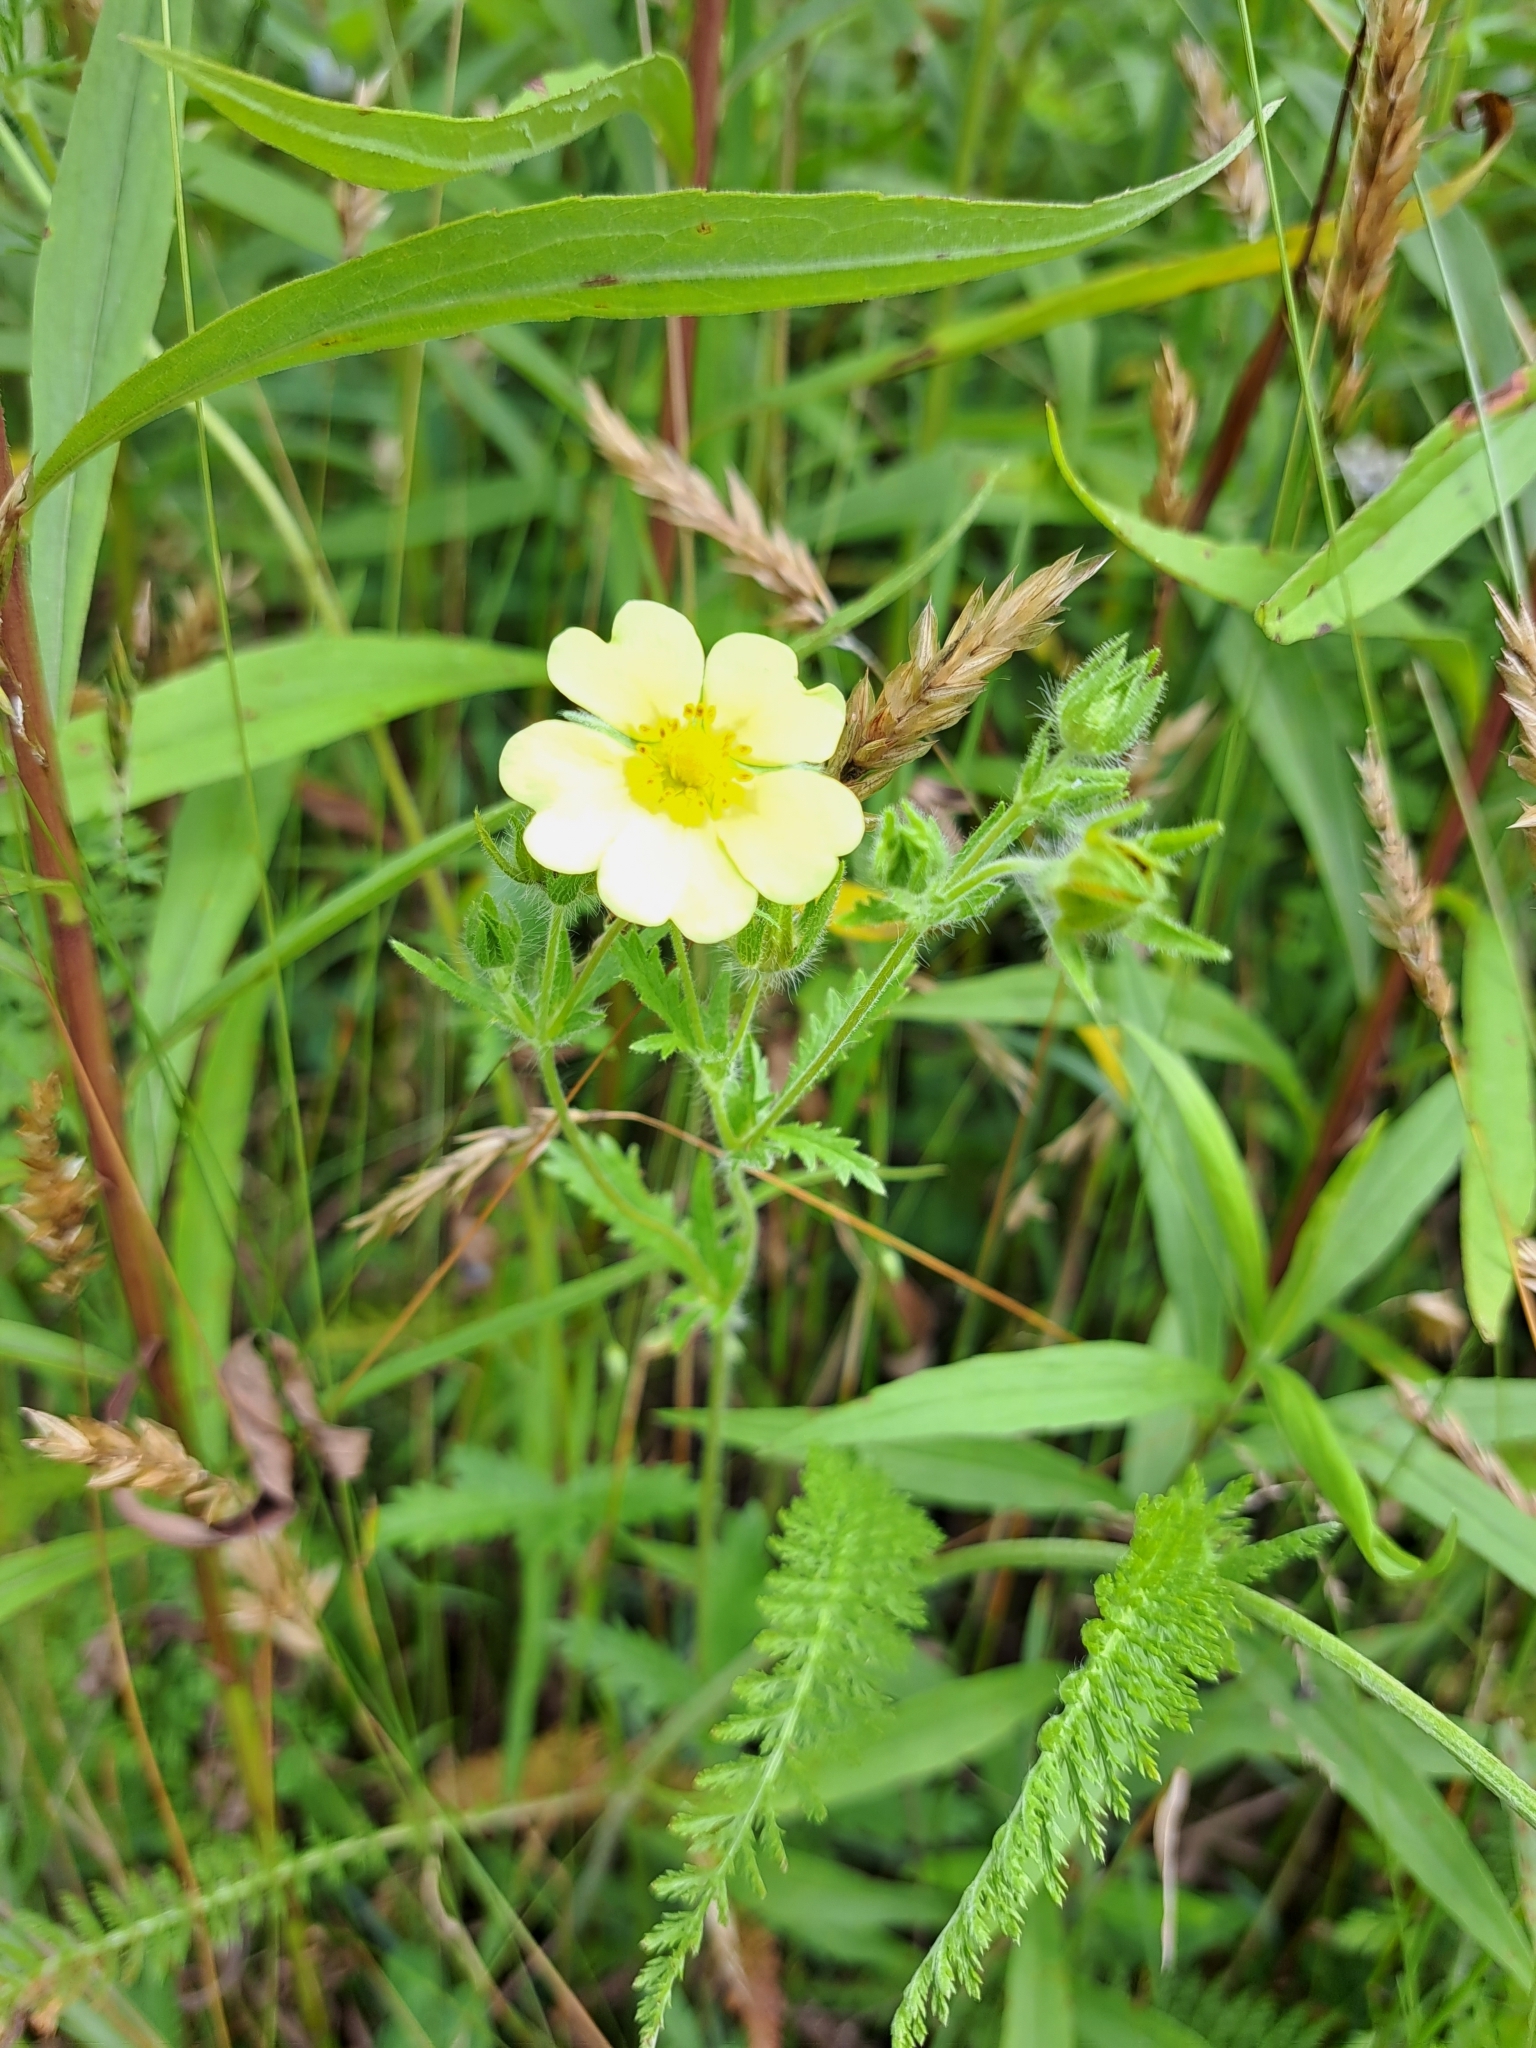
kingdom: Plantae
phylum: Tracheophyta
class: Magnoliopsida
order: Rosales
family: Rosaceae
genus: Potentilla
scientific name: Potentilla recta
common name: Sulphur cinquefoil
